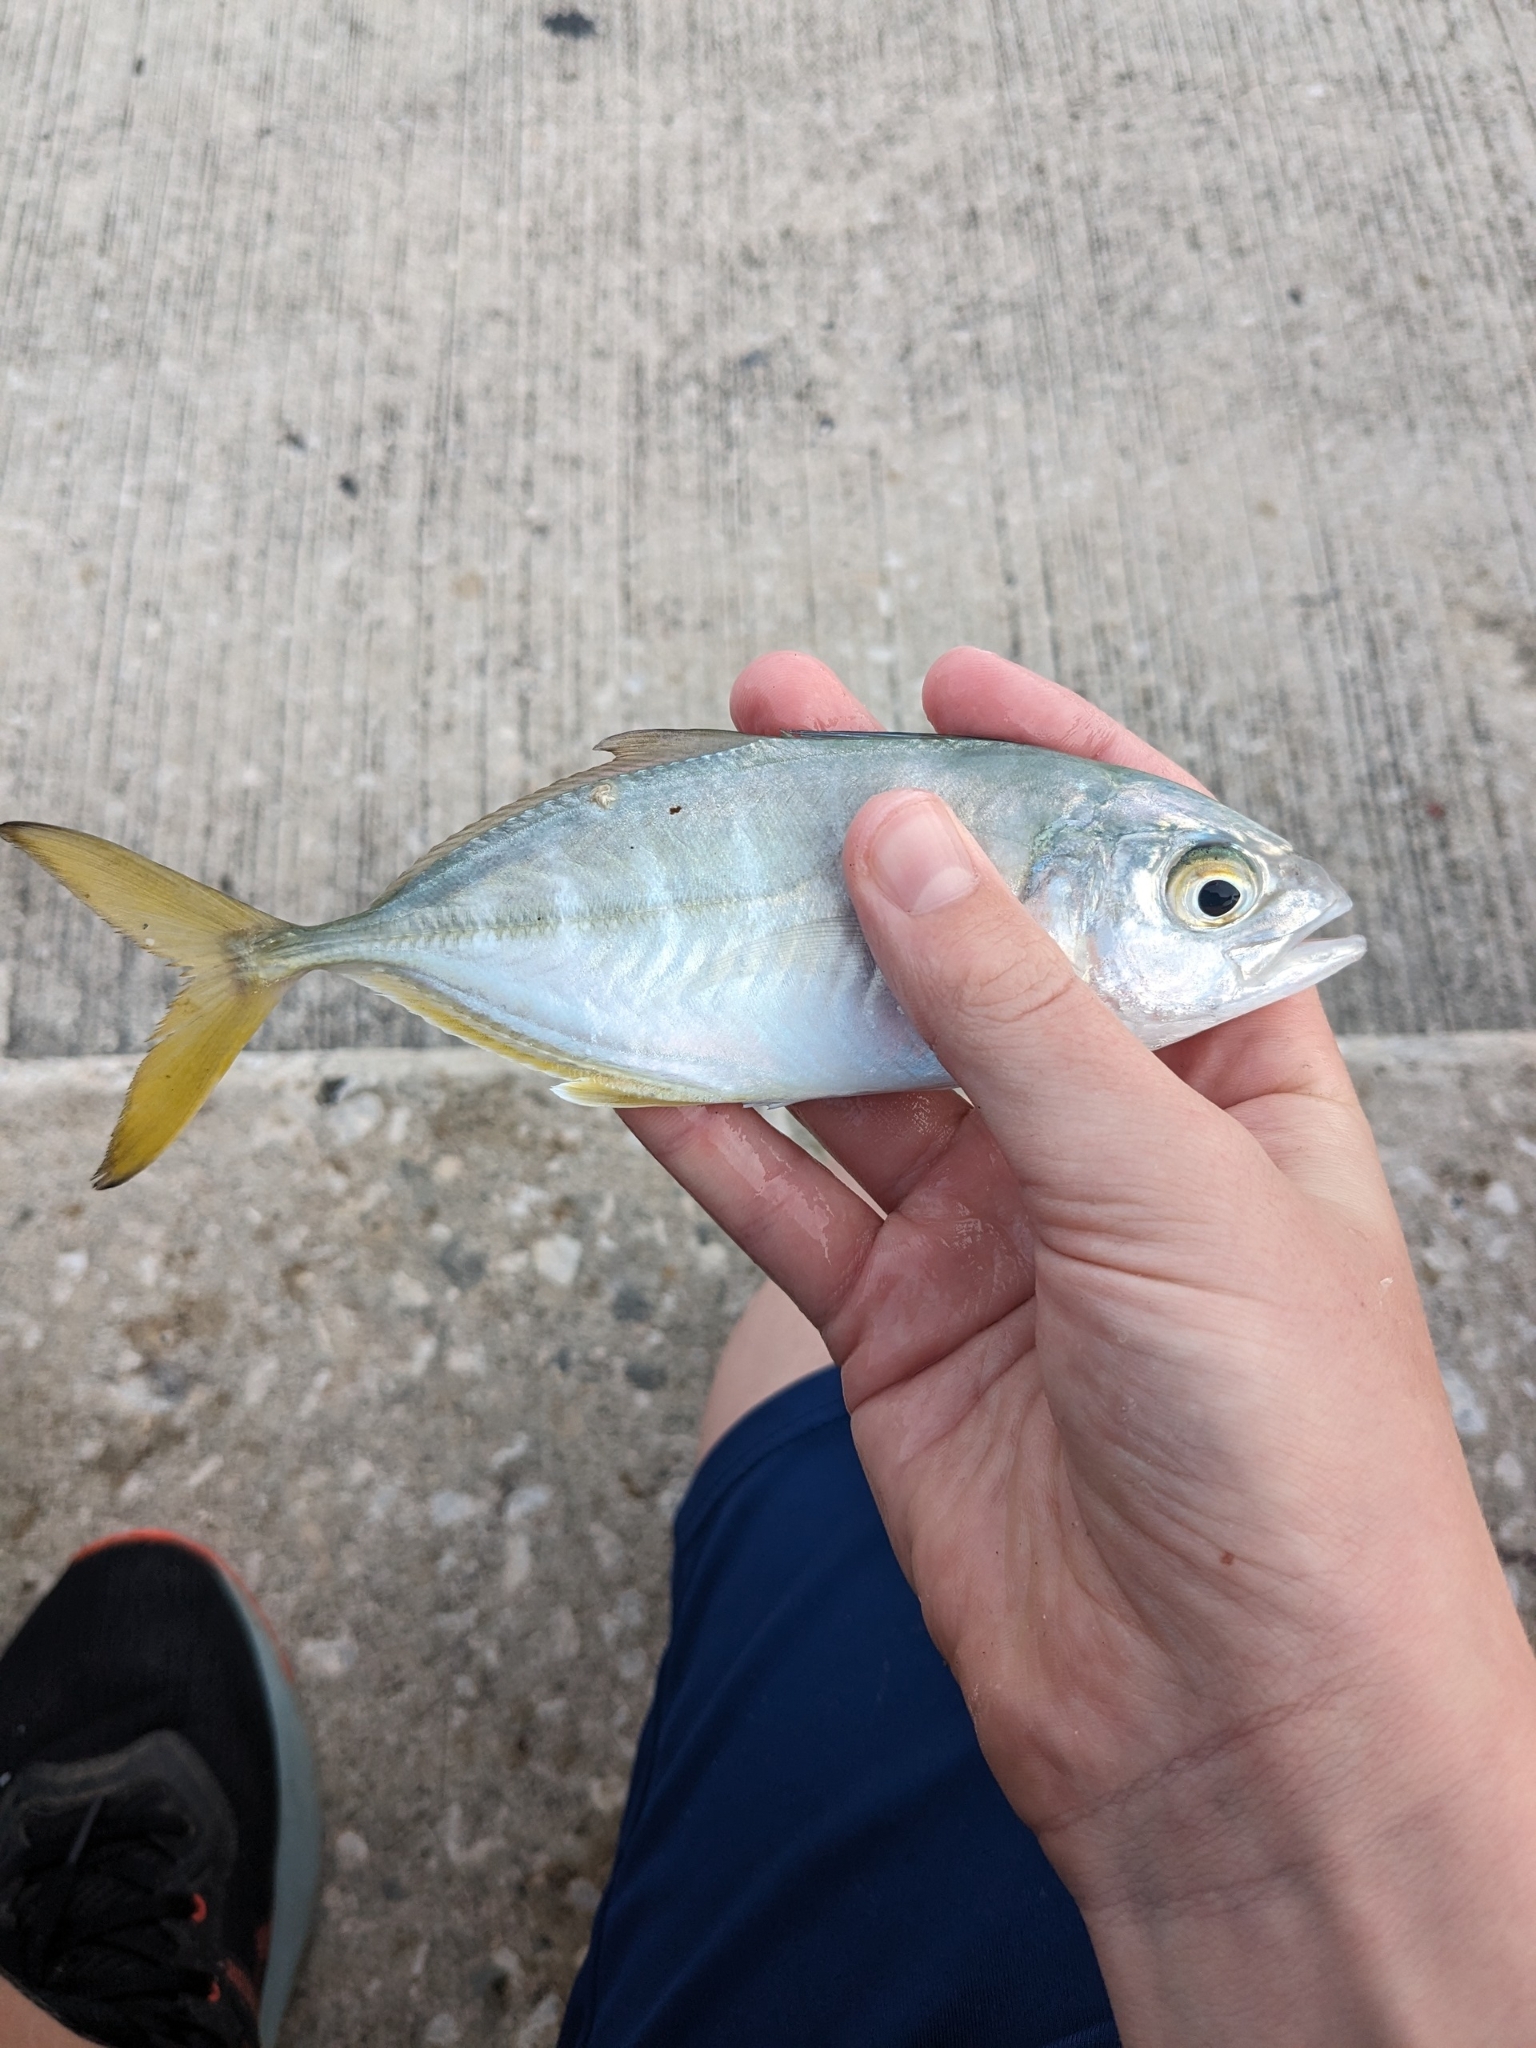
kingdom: Animalia
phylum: Chordata
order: Perciformes
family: Carangidae
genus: Caranx
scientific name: Caranx crysos
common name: Blue runner
